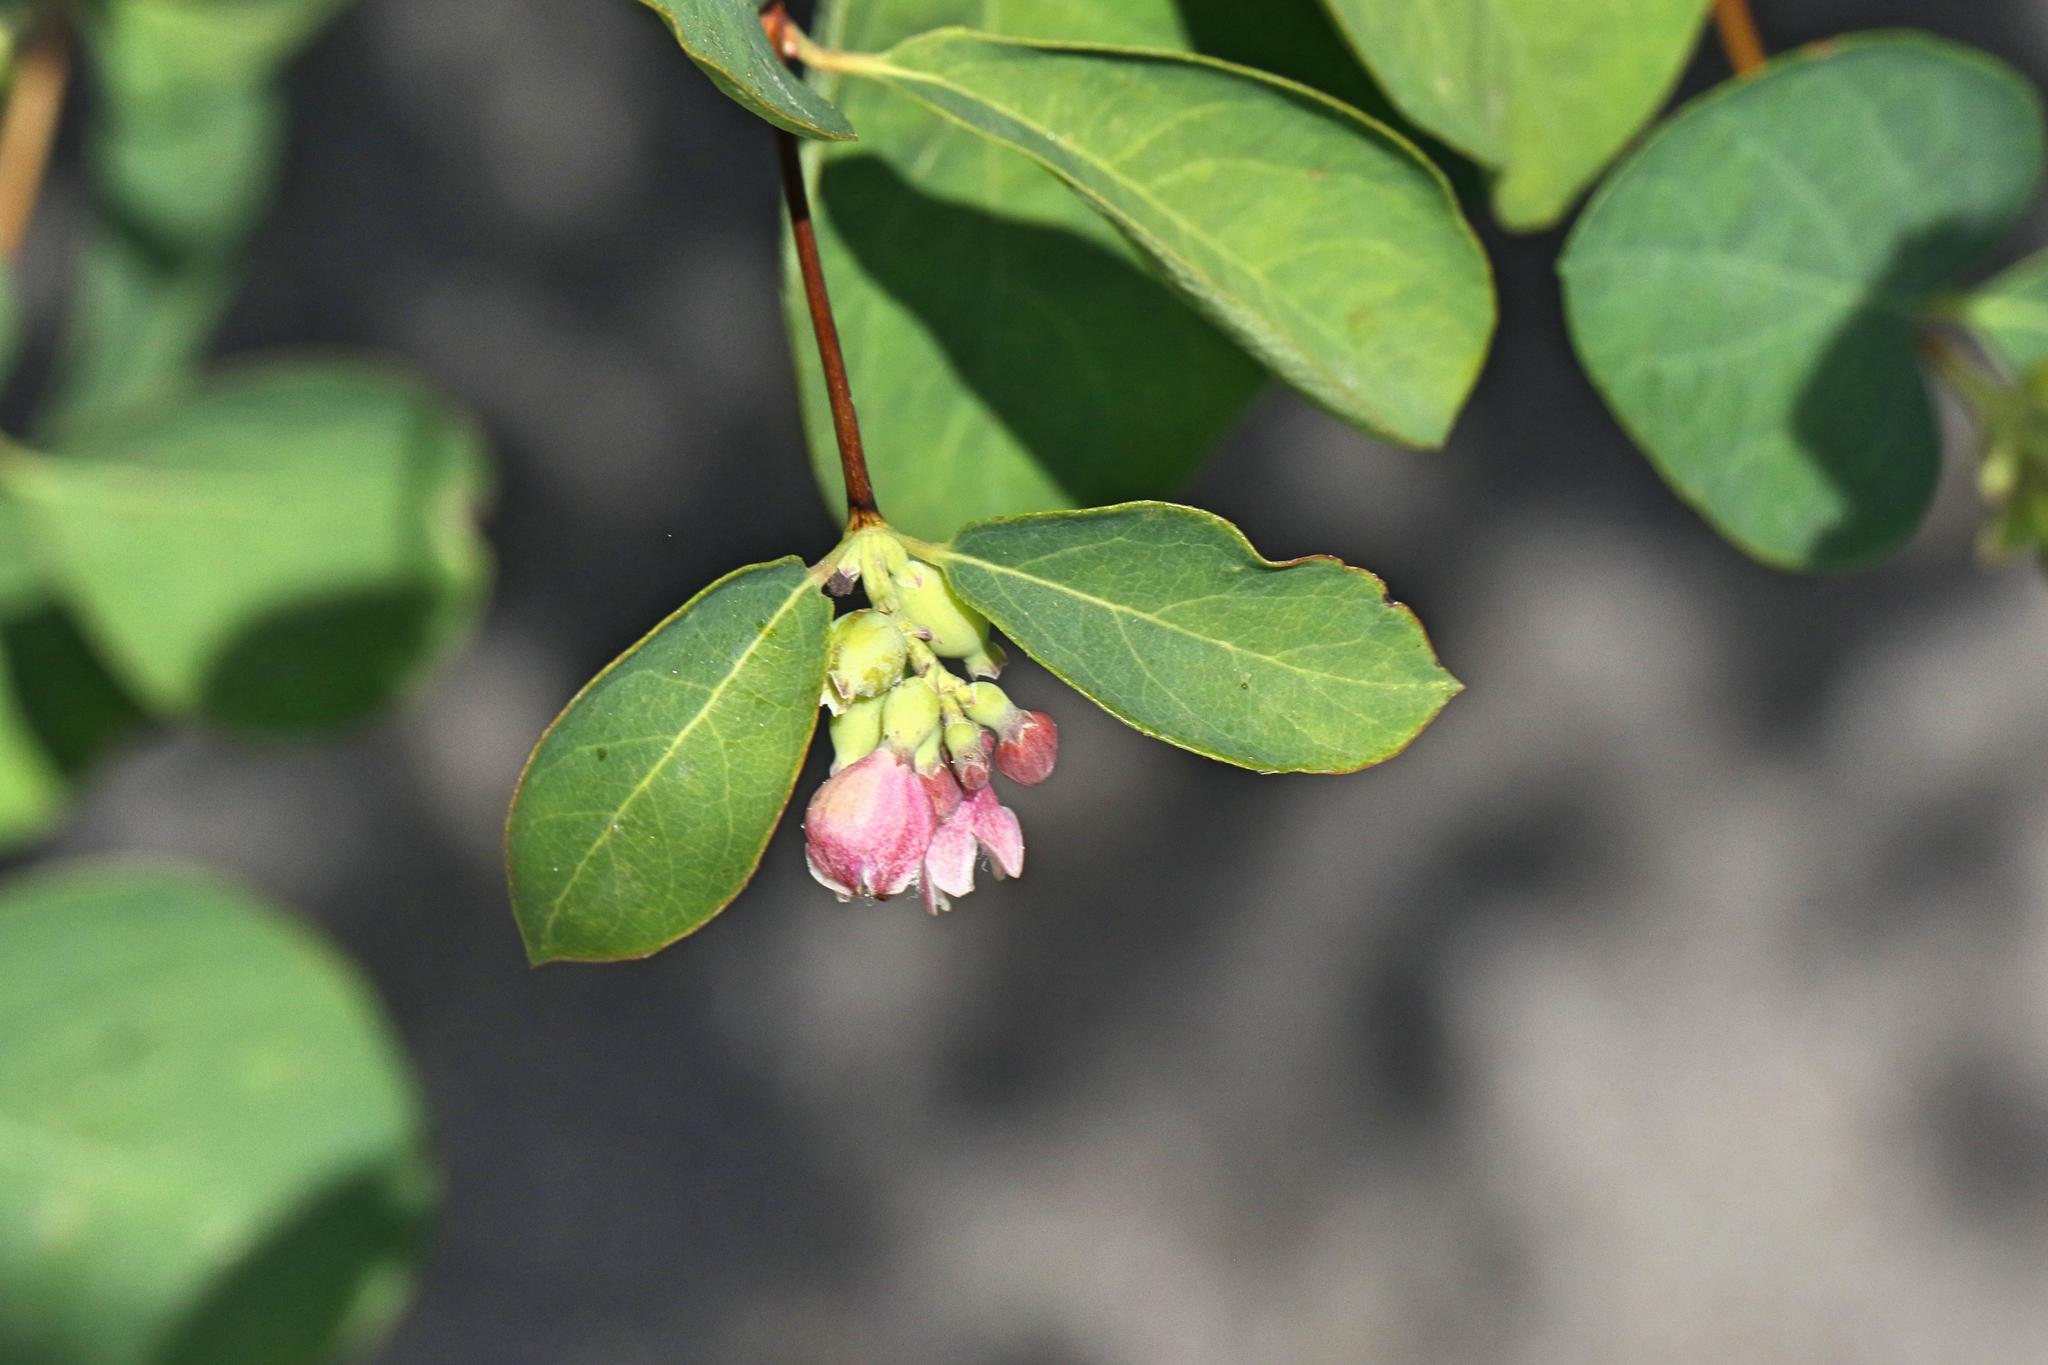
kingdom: Plantae
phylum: Tracheophyta
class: Magnoliopsida
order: Dipsacales
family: Caprifoliaceae
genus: Symphoricarpos
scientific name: Symphoricarpos albus
